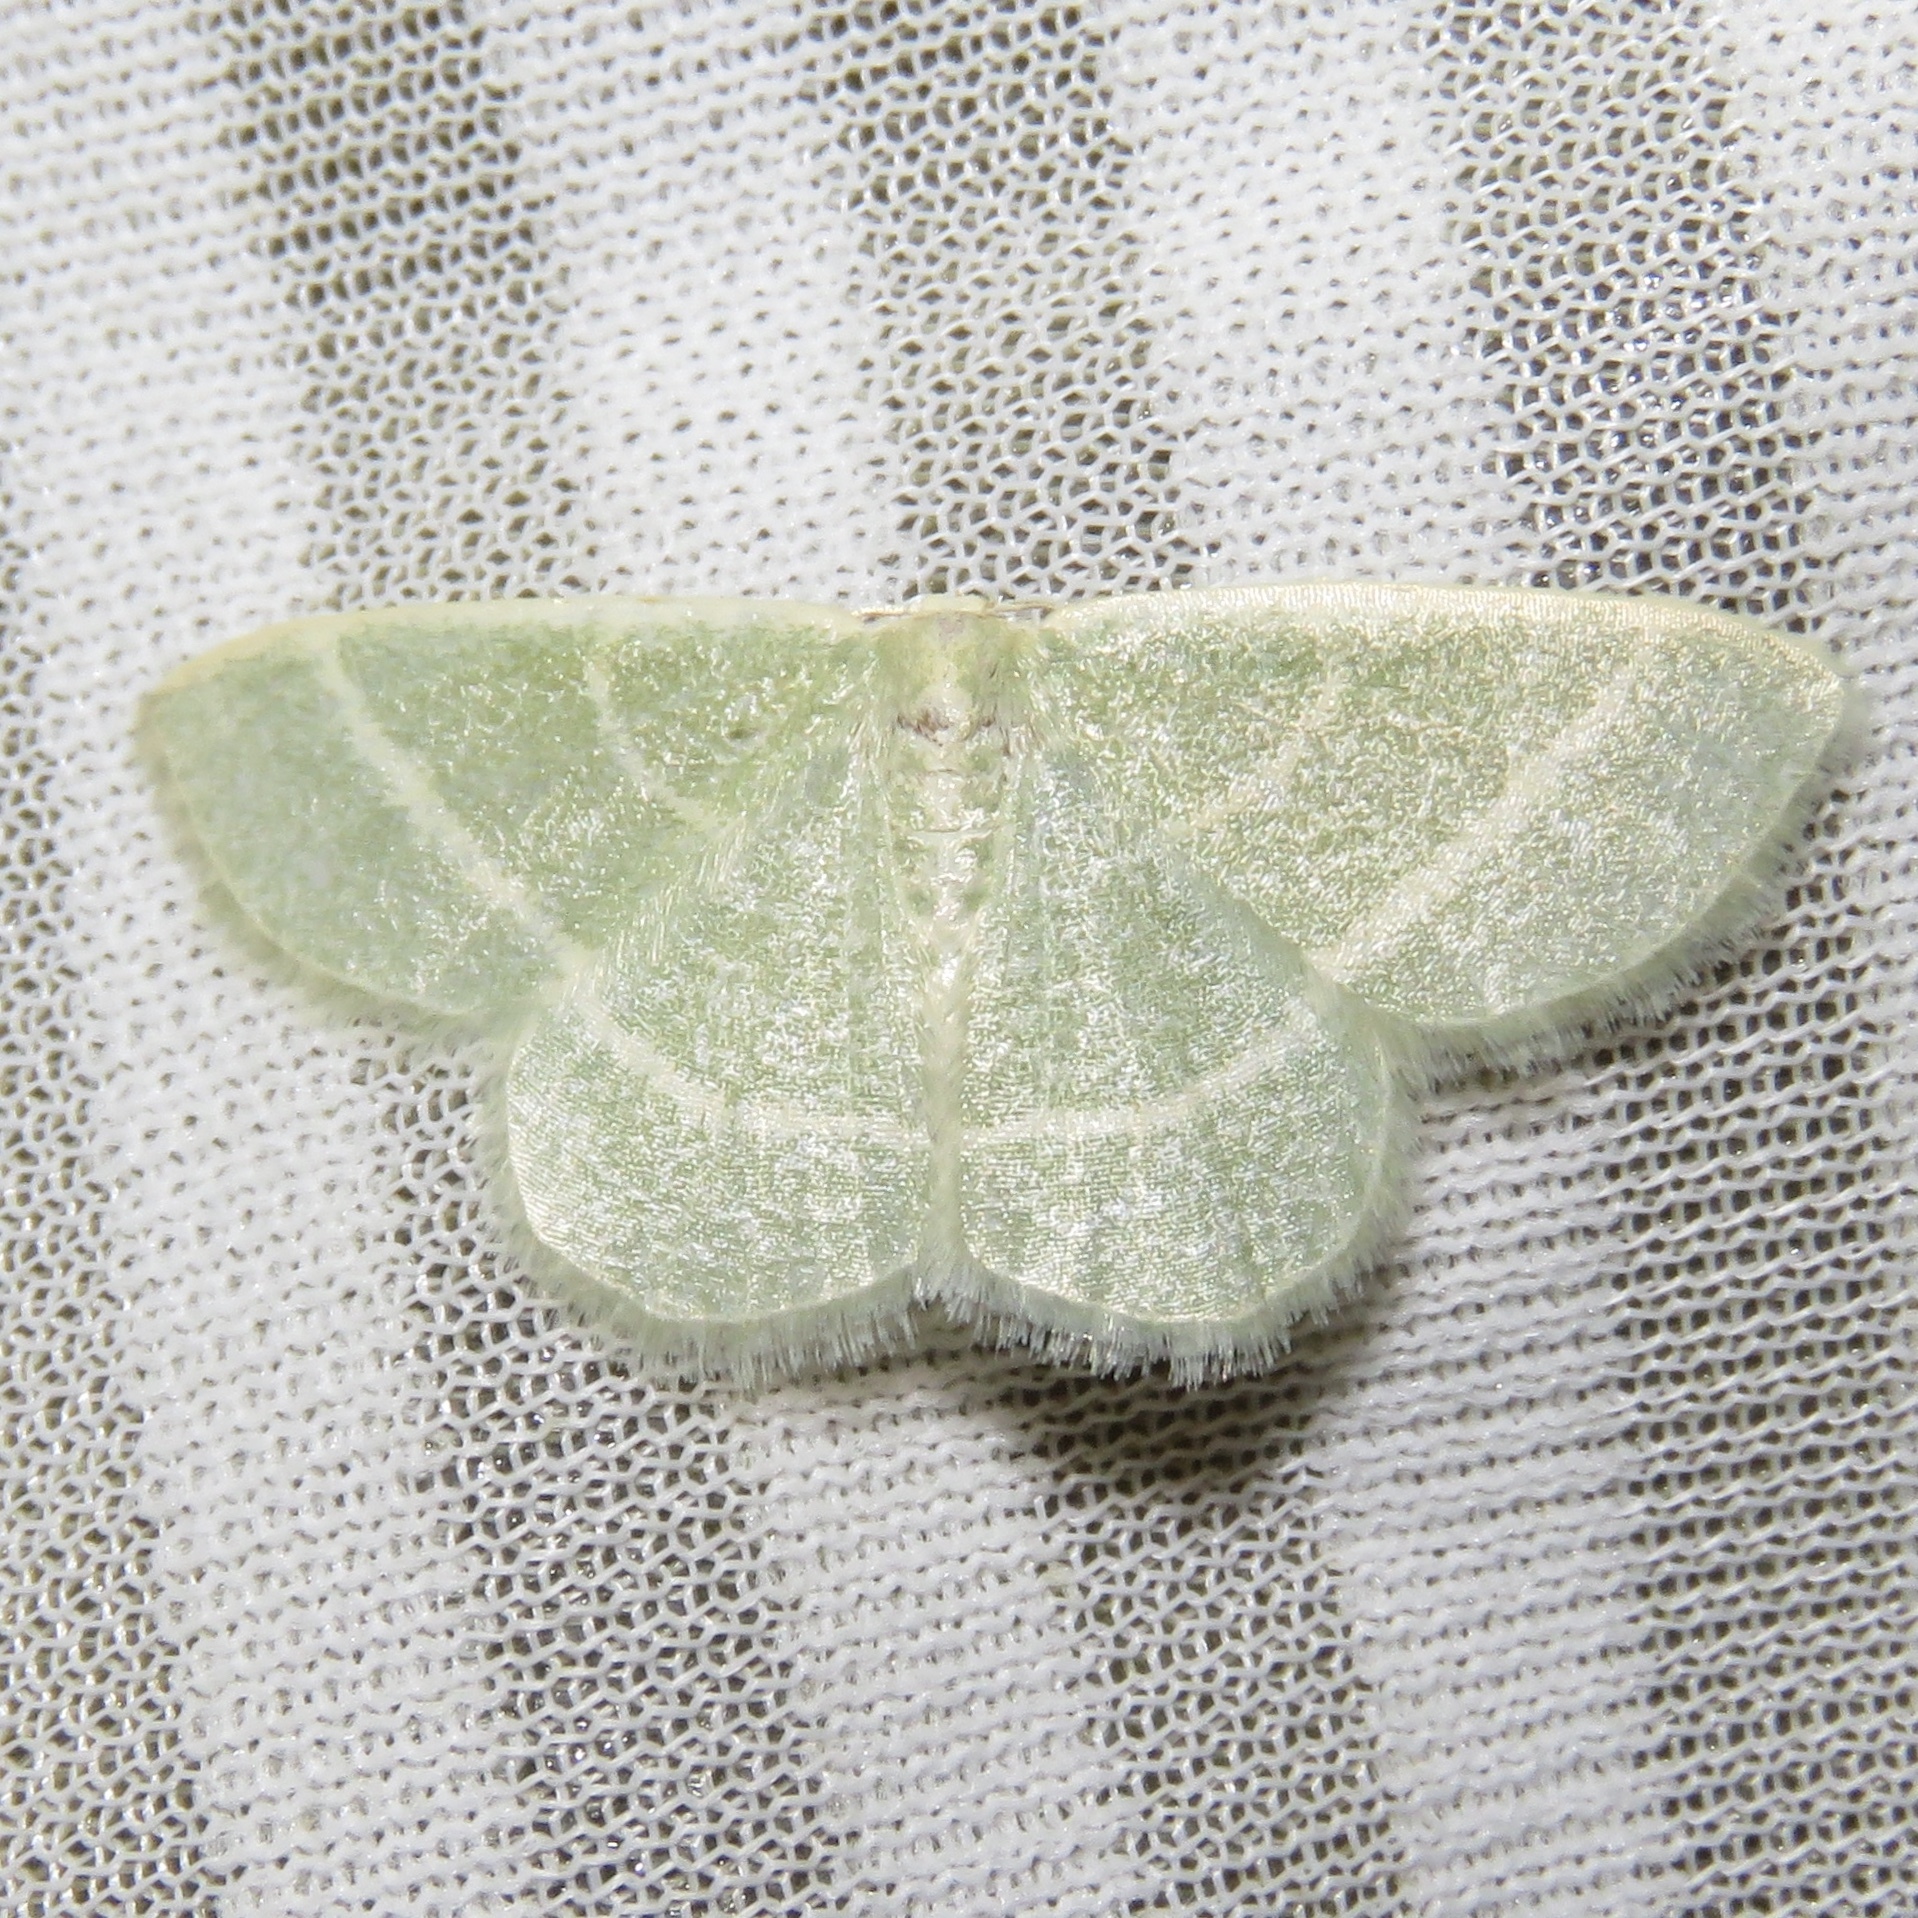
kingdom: Animalia
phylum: Arthropoda
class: Insecta
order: Lepidoptera
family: Geometridae
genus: Chlorochlamys
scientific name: Chlorochlamys chloroleucaria
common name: Blackberry looper
